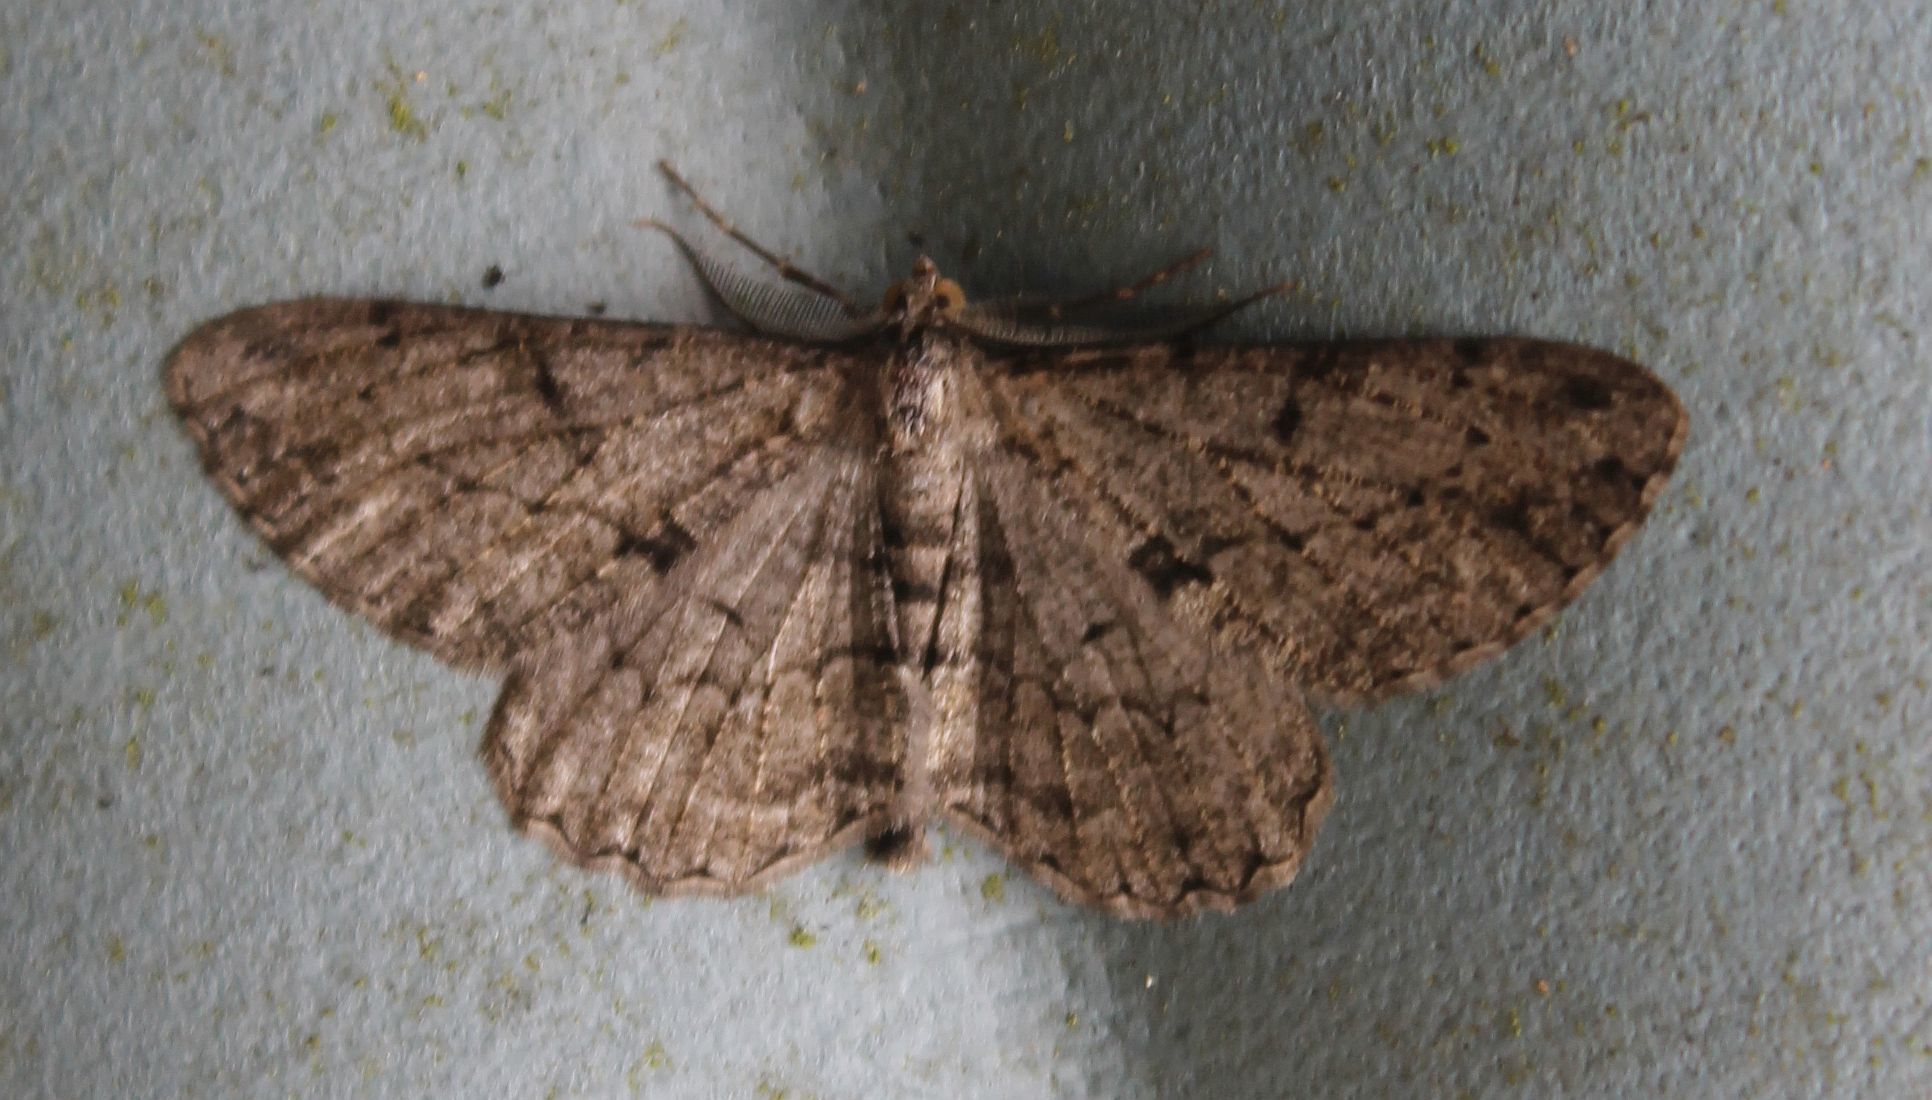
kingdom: Animalia
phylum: Arthropoda
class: Insecta
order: Lepidoptera
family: Geometridae
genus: Peribatodes
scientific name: Peribatodes rhomboidaria
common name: Willow beauty
